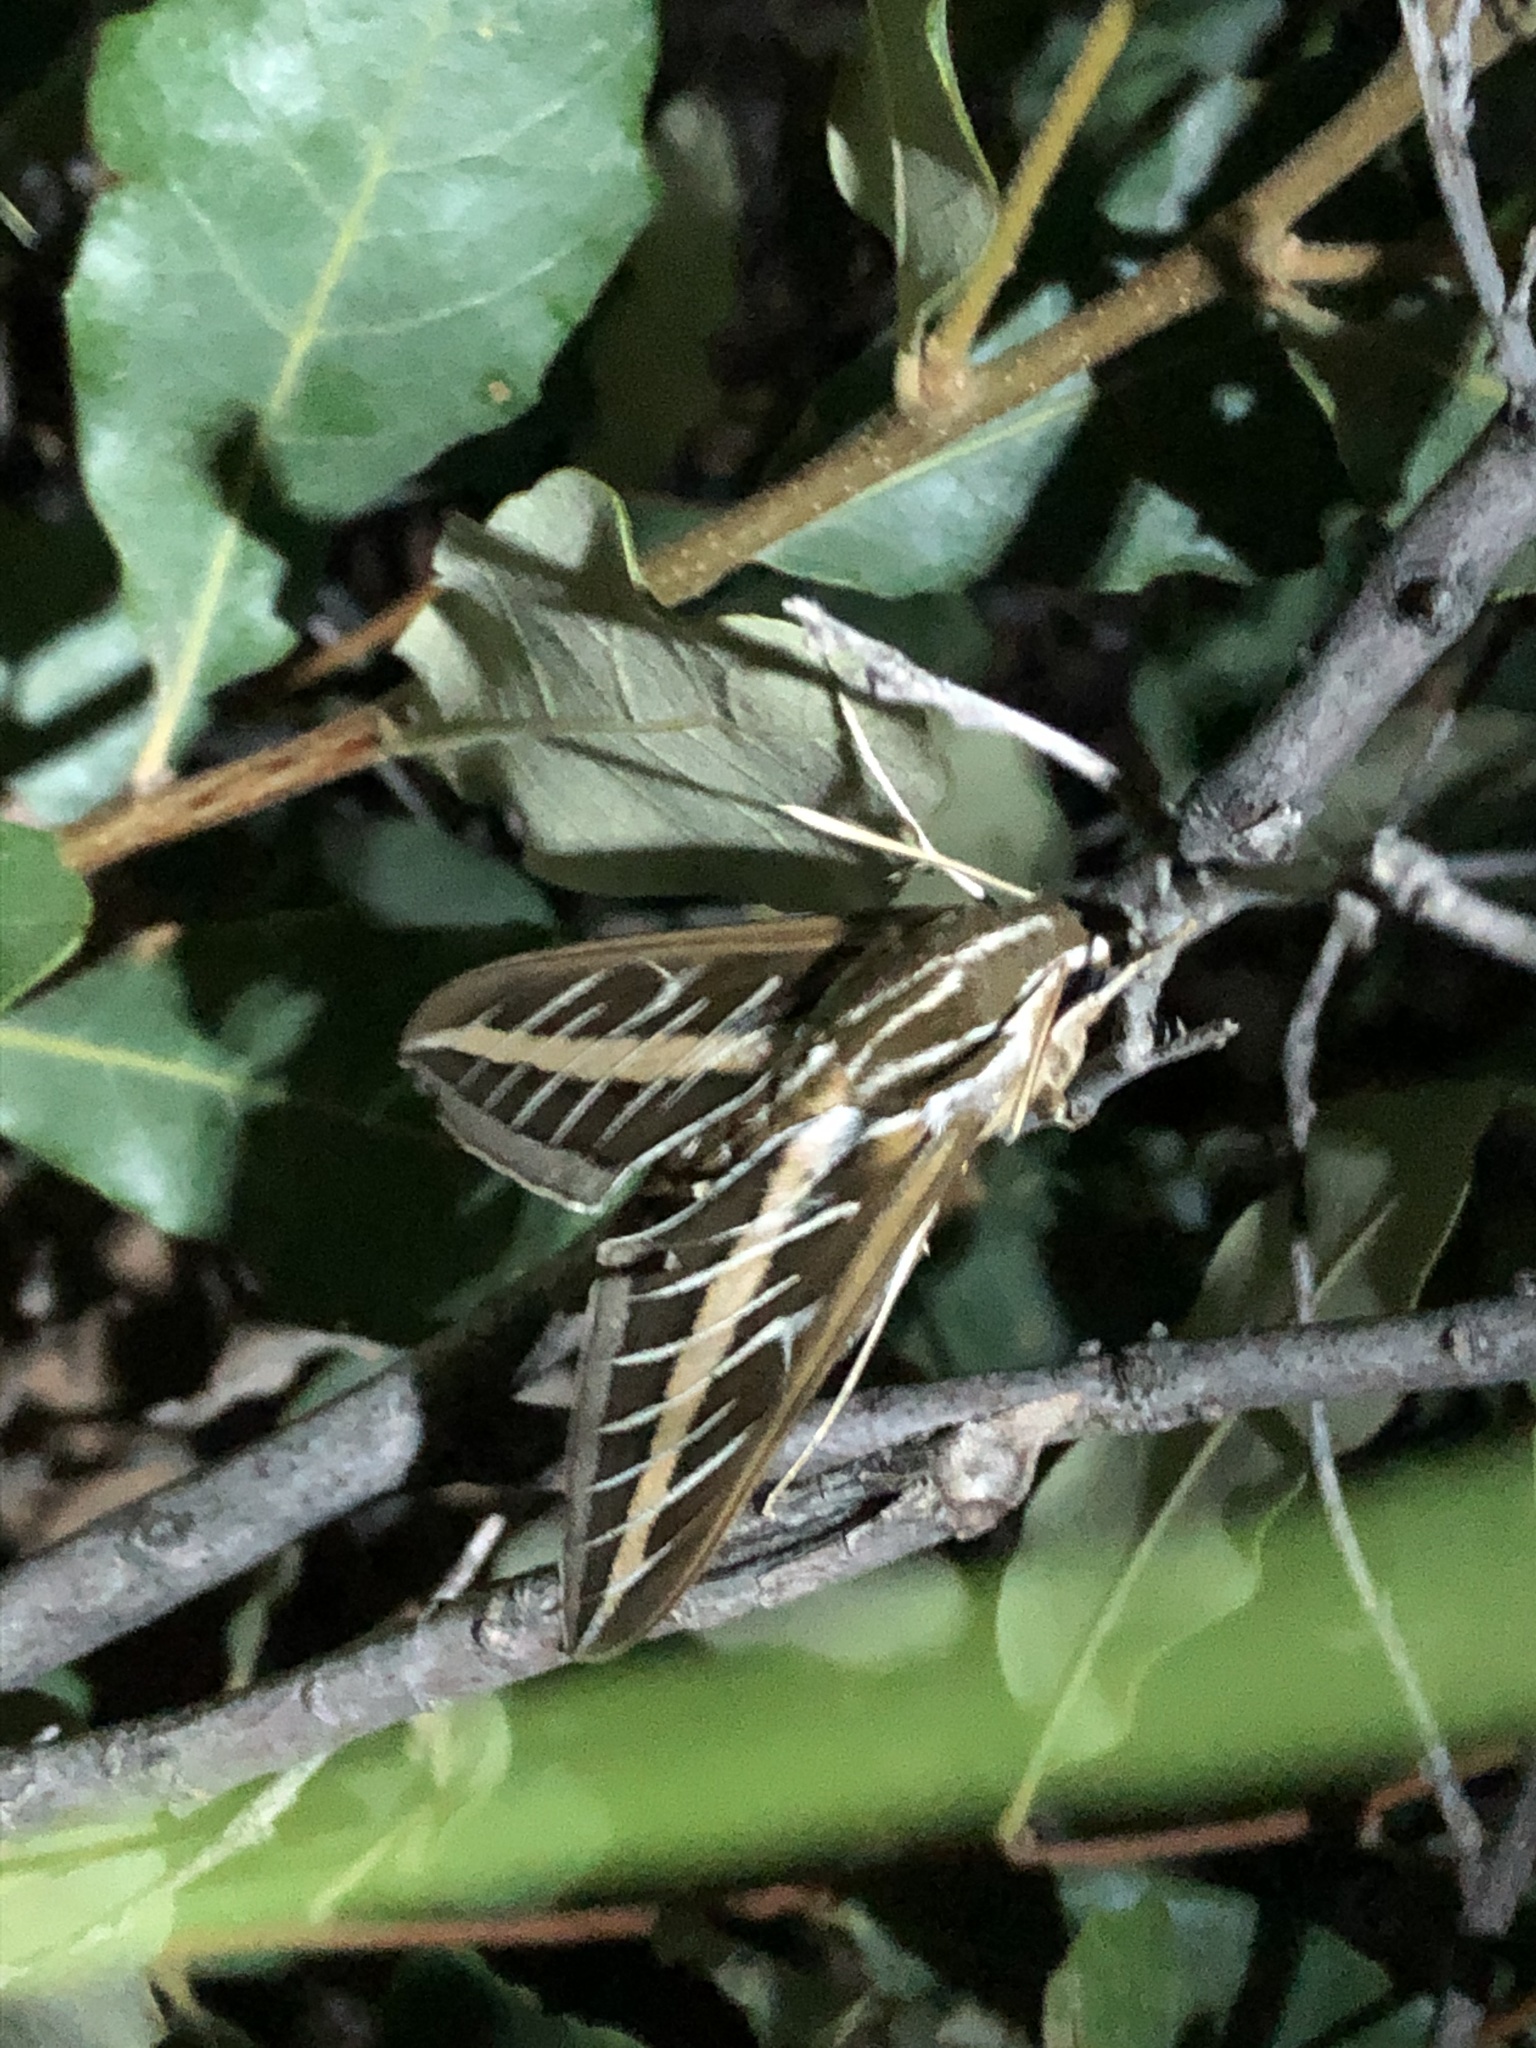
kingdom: Animalia
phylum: Arthropoda
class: Insecta
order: Lepidoptera
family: Sphingidae
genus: Hyles
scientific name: Hyles lineata
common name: White-lined sphinx
